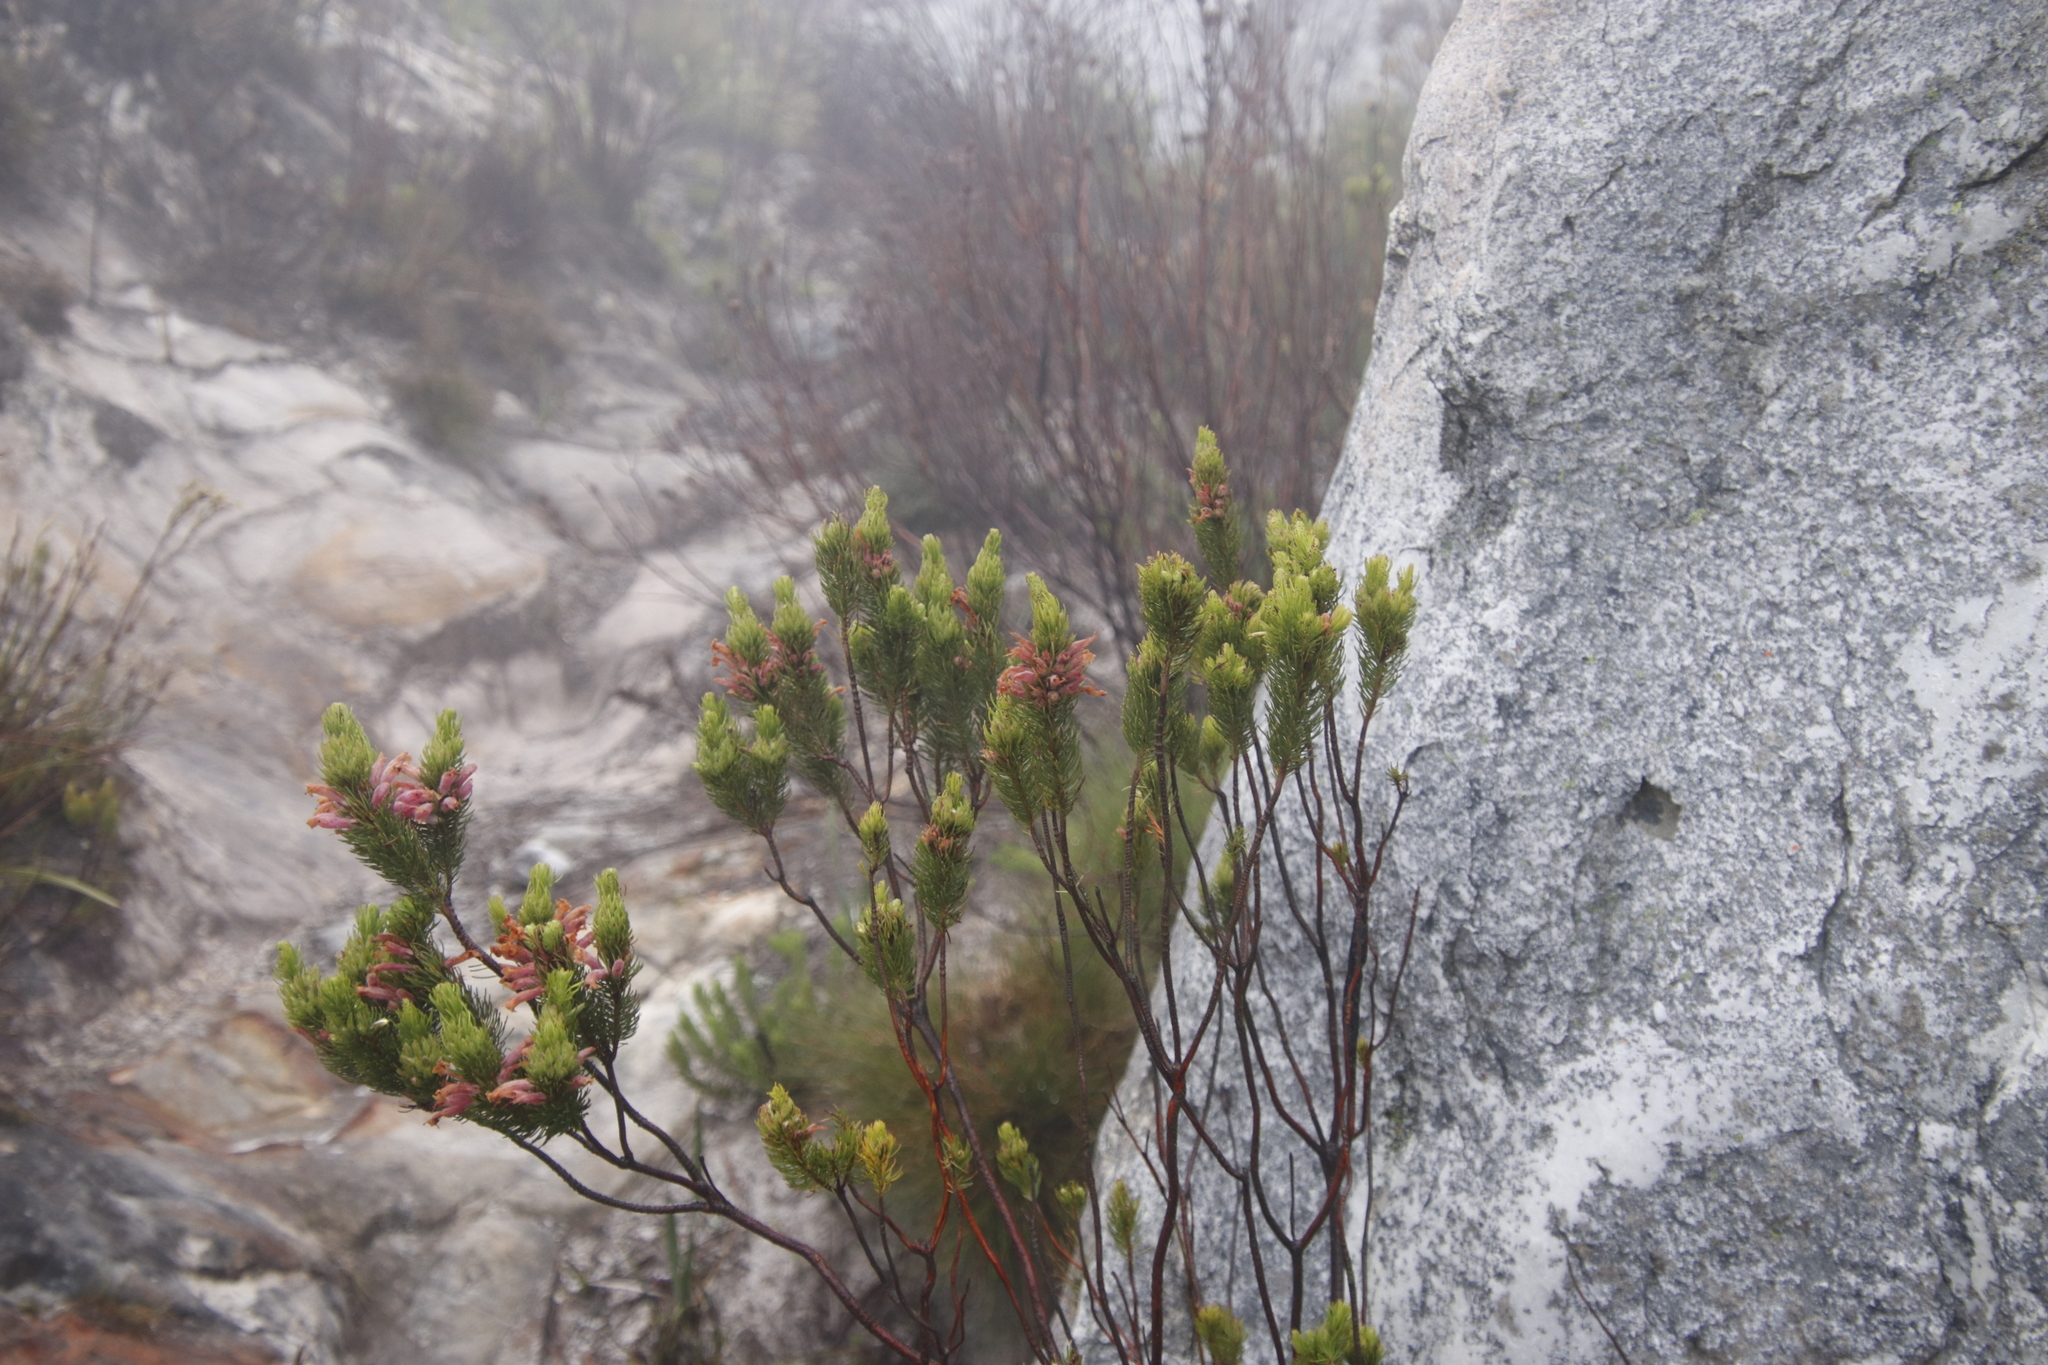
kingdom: Plantae
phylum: Tracheophyta
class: Magnoliopsida
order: Ericales
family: Ericaceae
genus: Erica
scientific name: Erica viscaria
